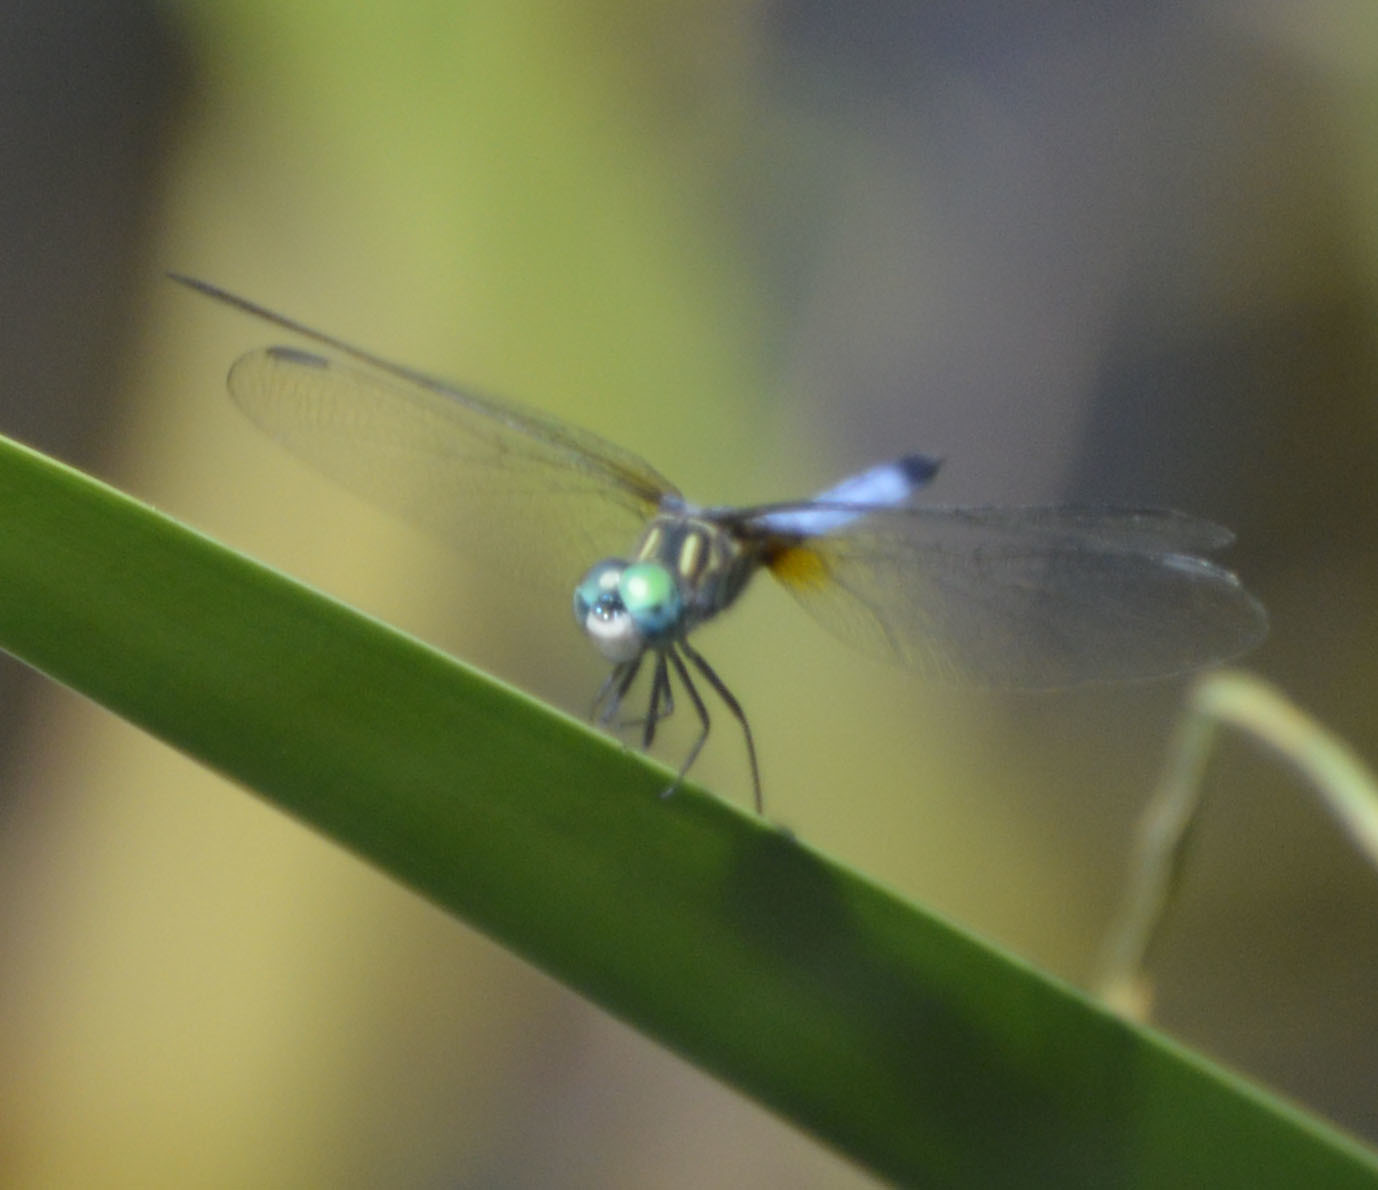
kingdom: Animalia
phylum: Arthropoda
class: Insecta
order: Odonata
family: Libellulidae
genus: Pachydiplax
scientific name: Pachydiplax longipennis
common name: Blue dasher
